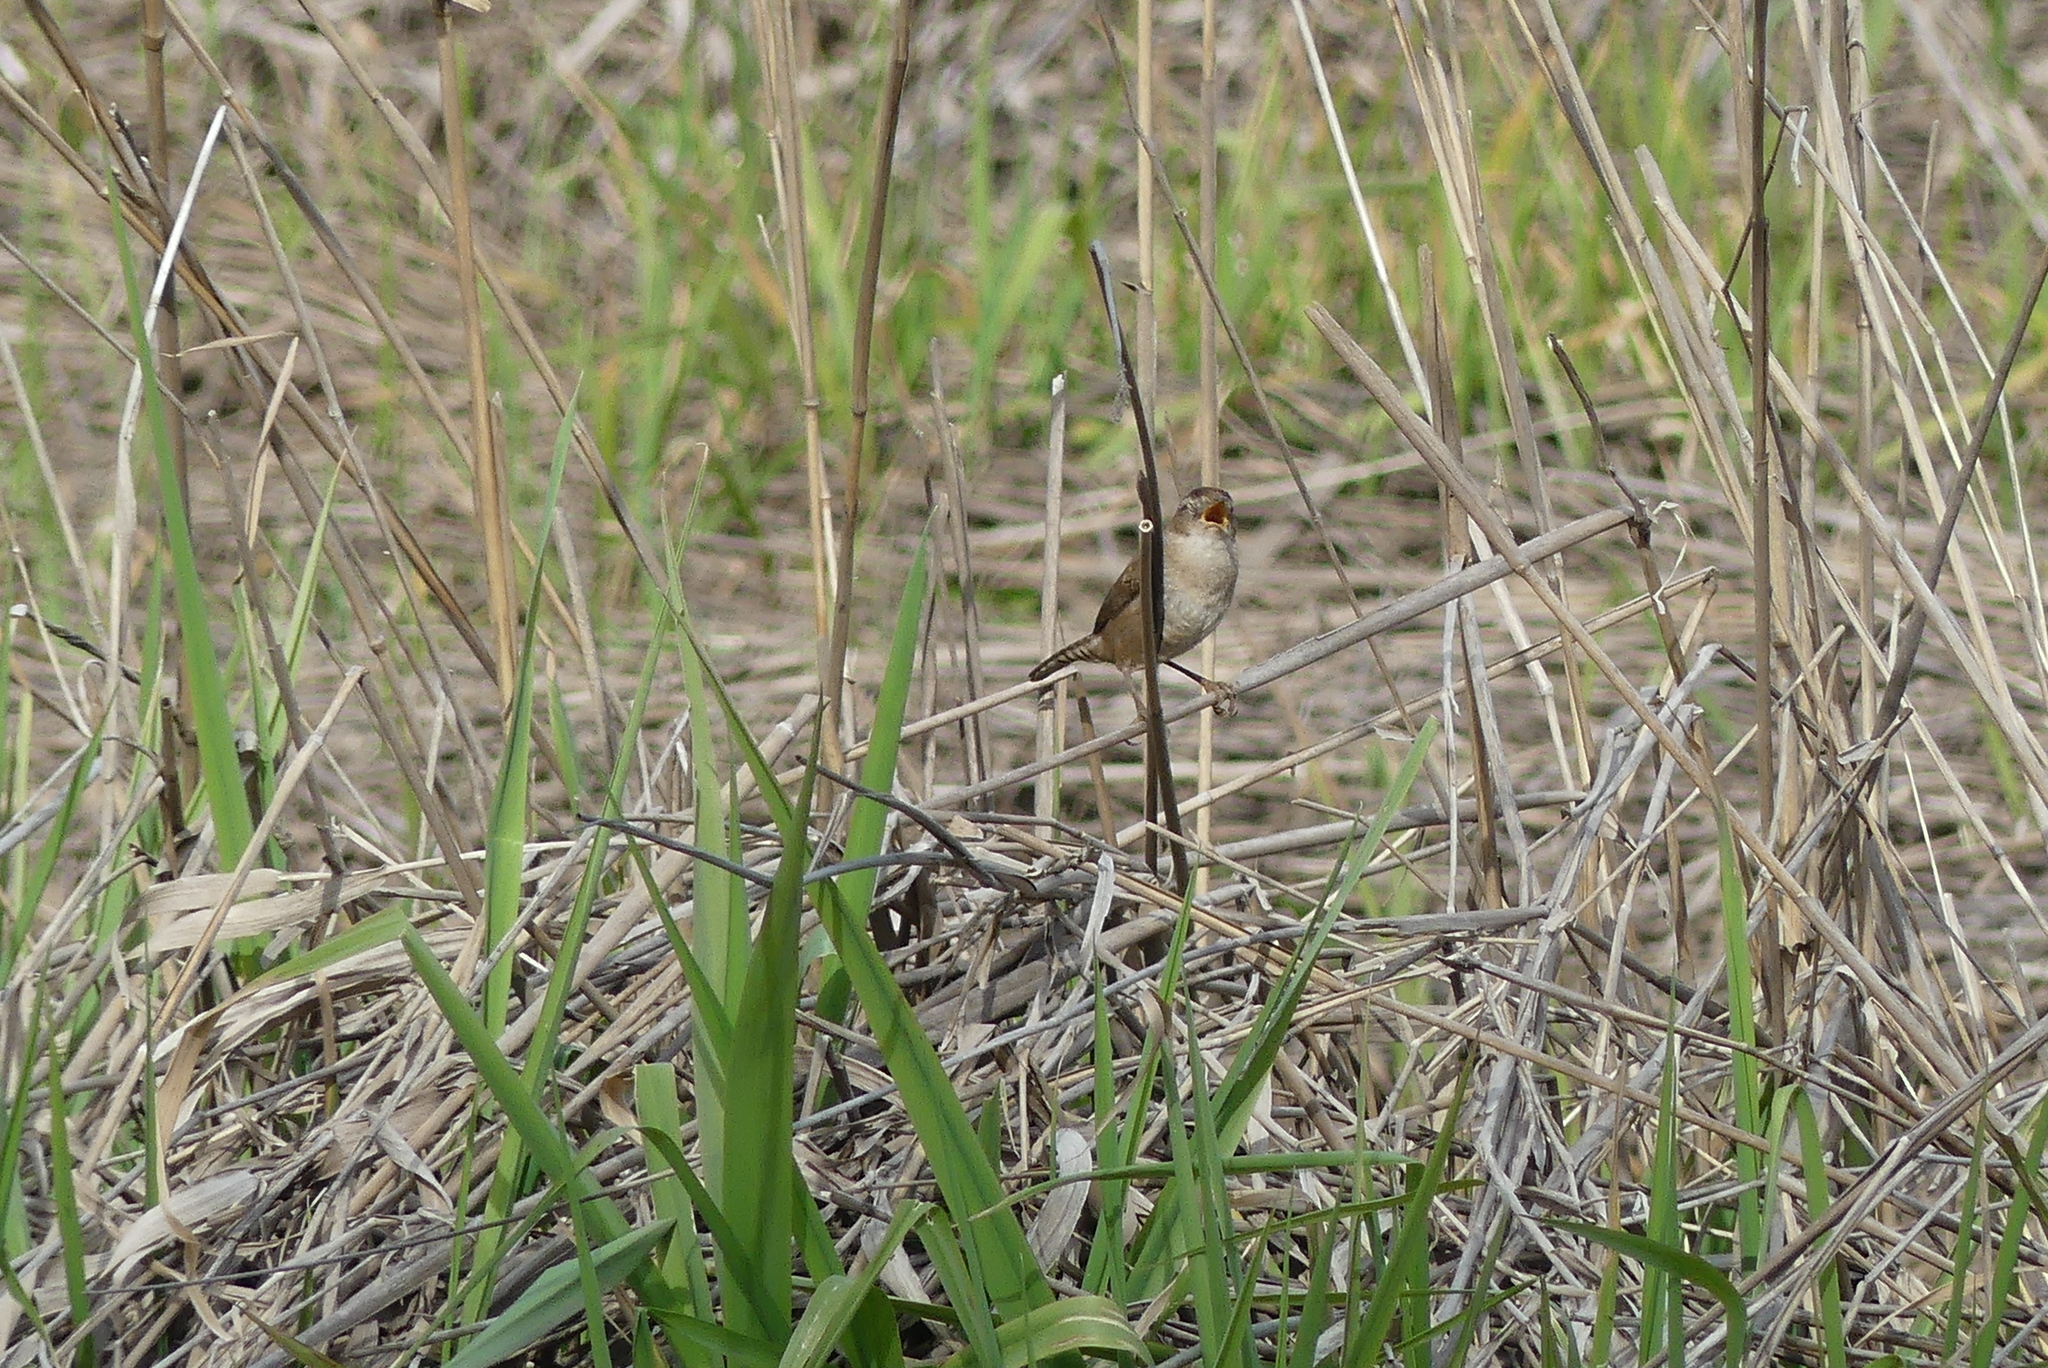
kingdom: Animalia
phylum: Chordata
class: Aves
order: Passeriformes
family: Troglodytidae
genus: Cistothorus
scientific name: Cistothorus palustris
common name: Marsh wren
